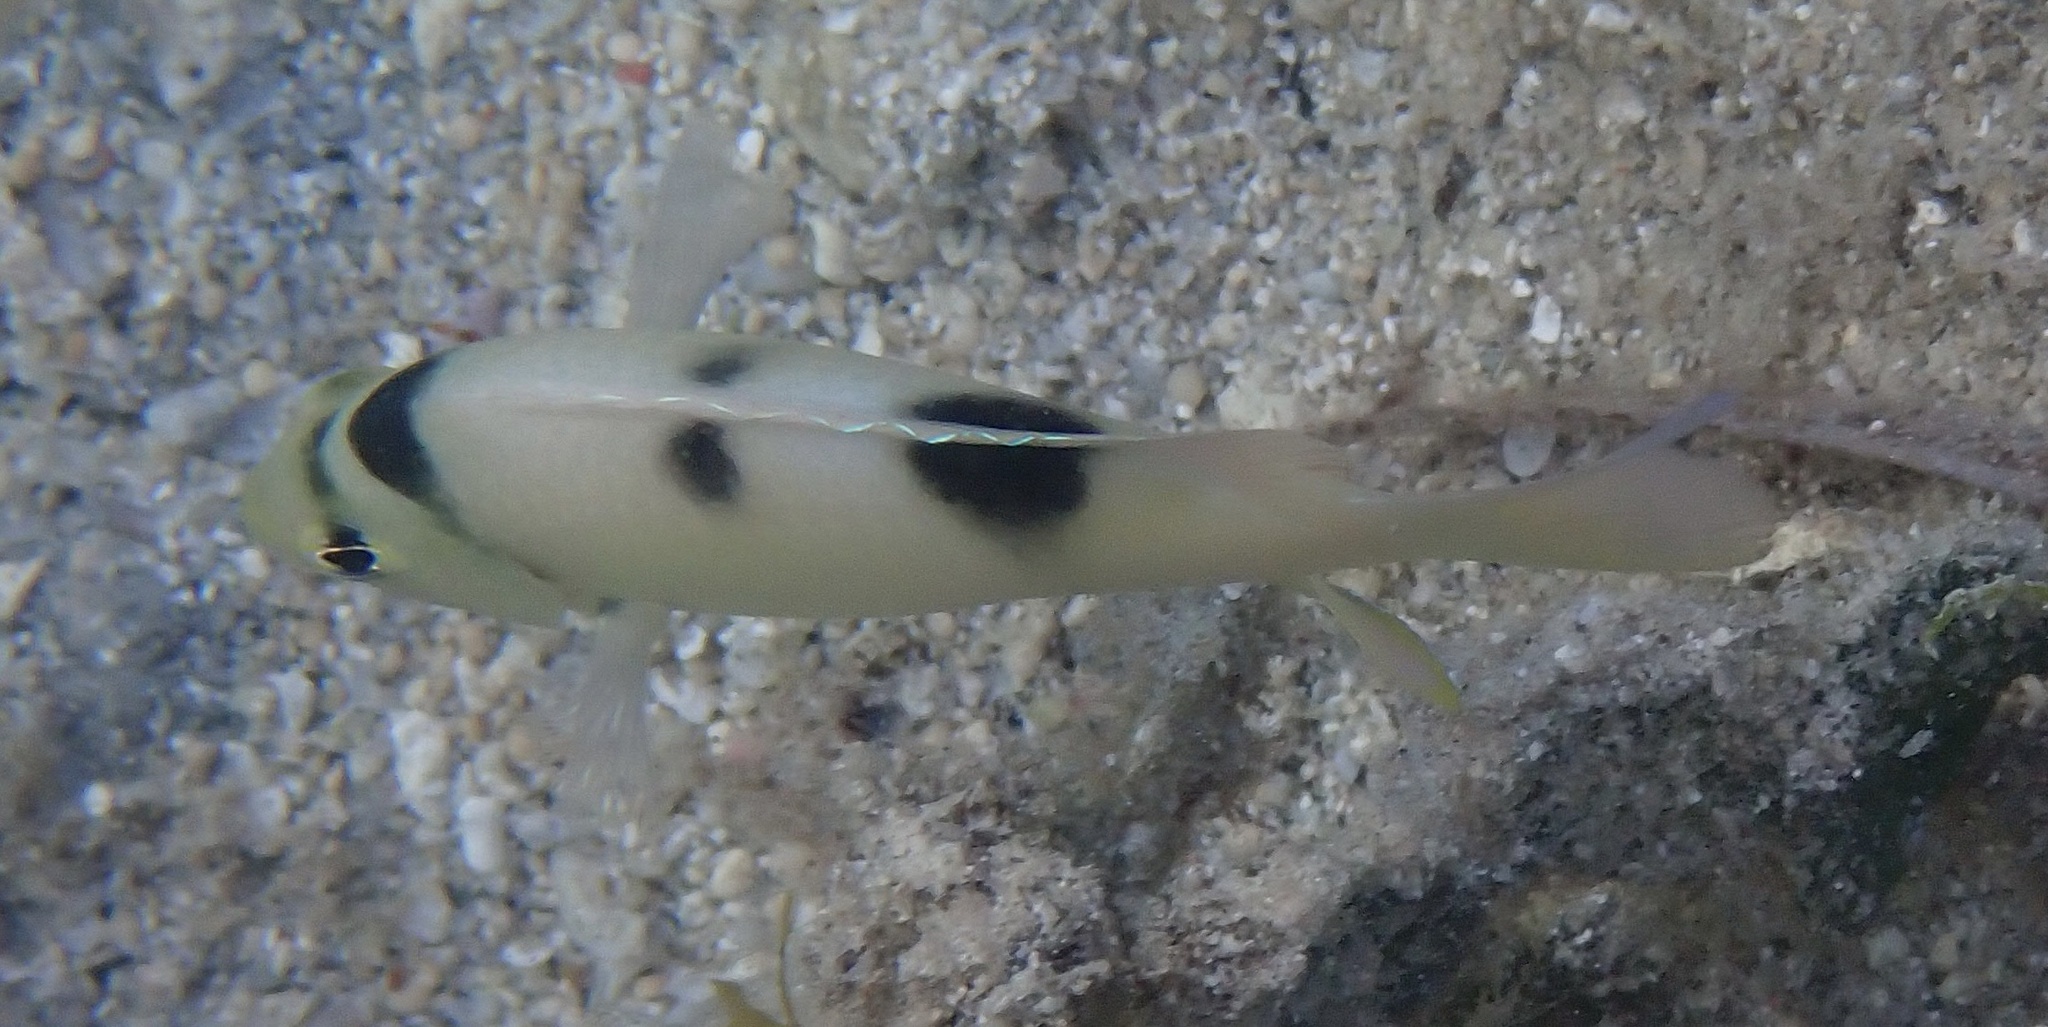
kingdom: Animalia
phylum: Chordata
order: Perciformes
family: Pomacentridae
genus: Dischistodus
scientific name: Dischistodus perspicillatus
